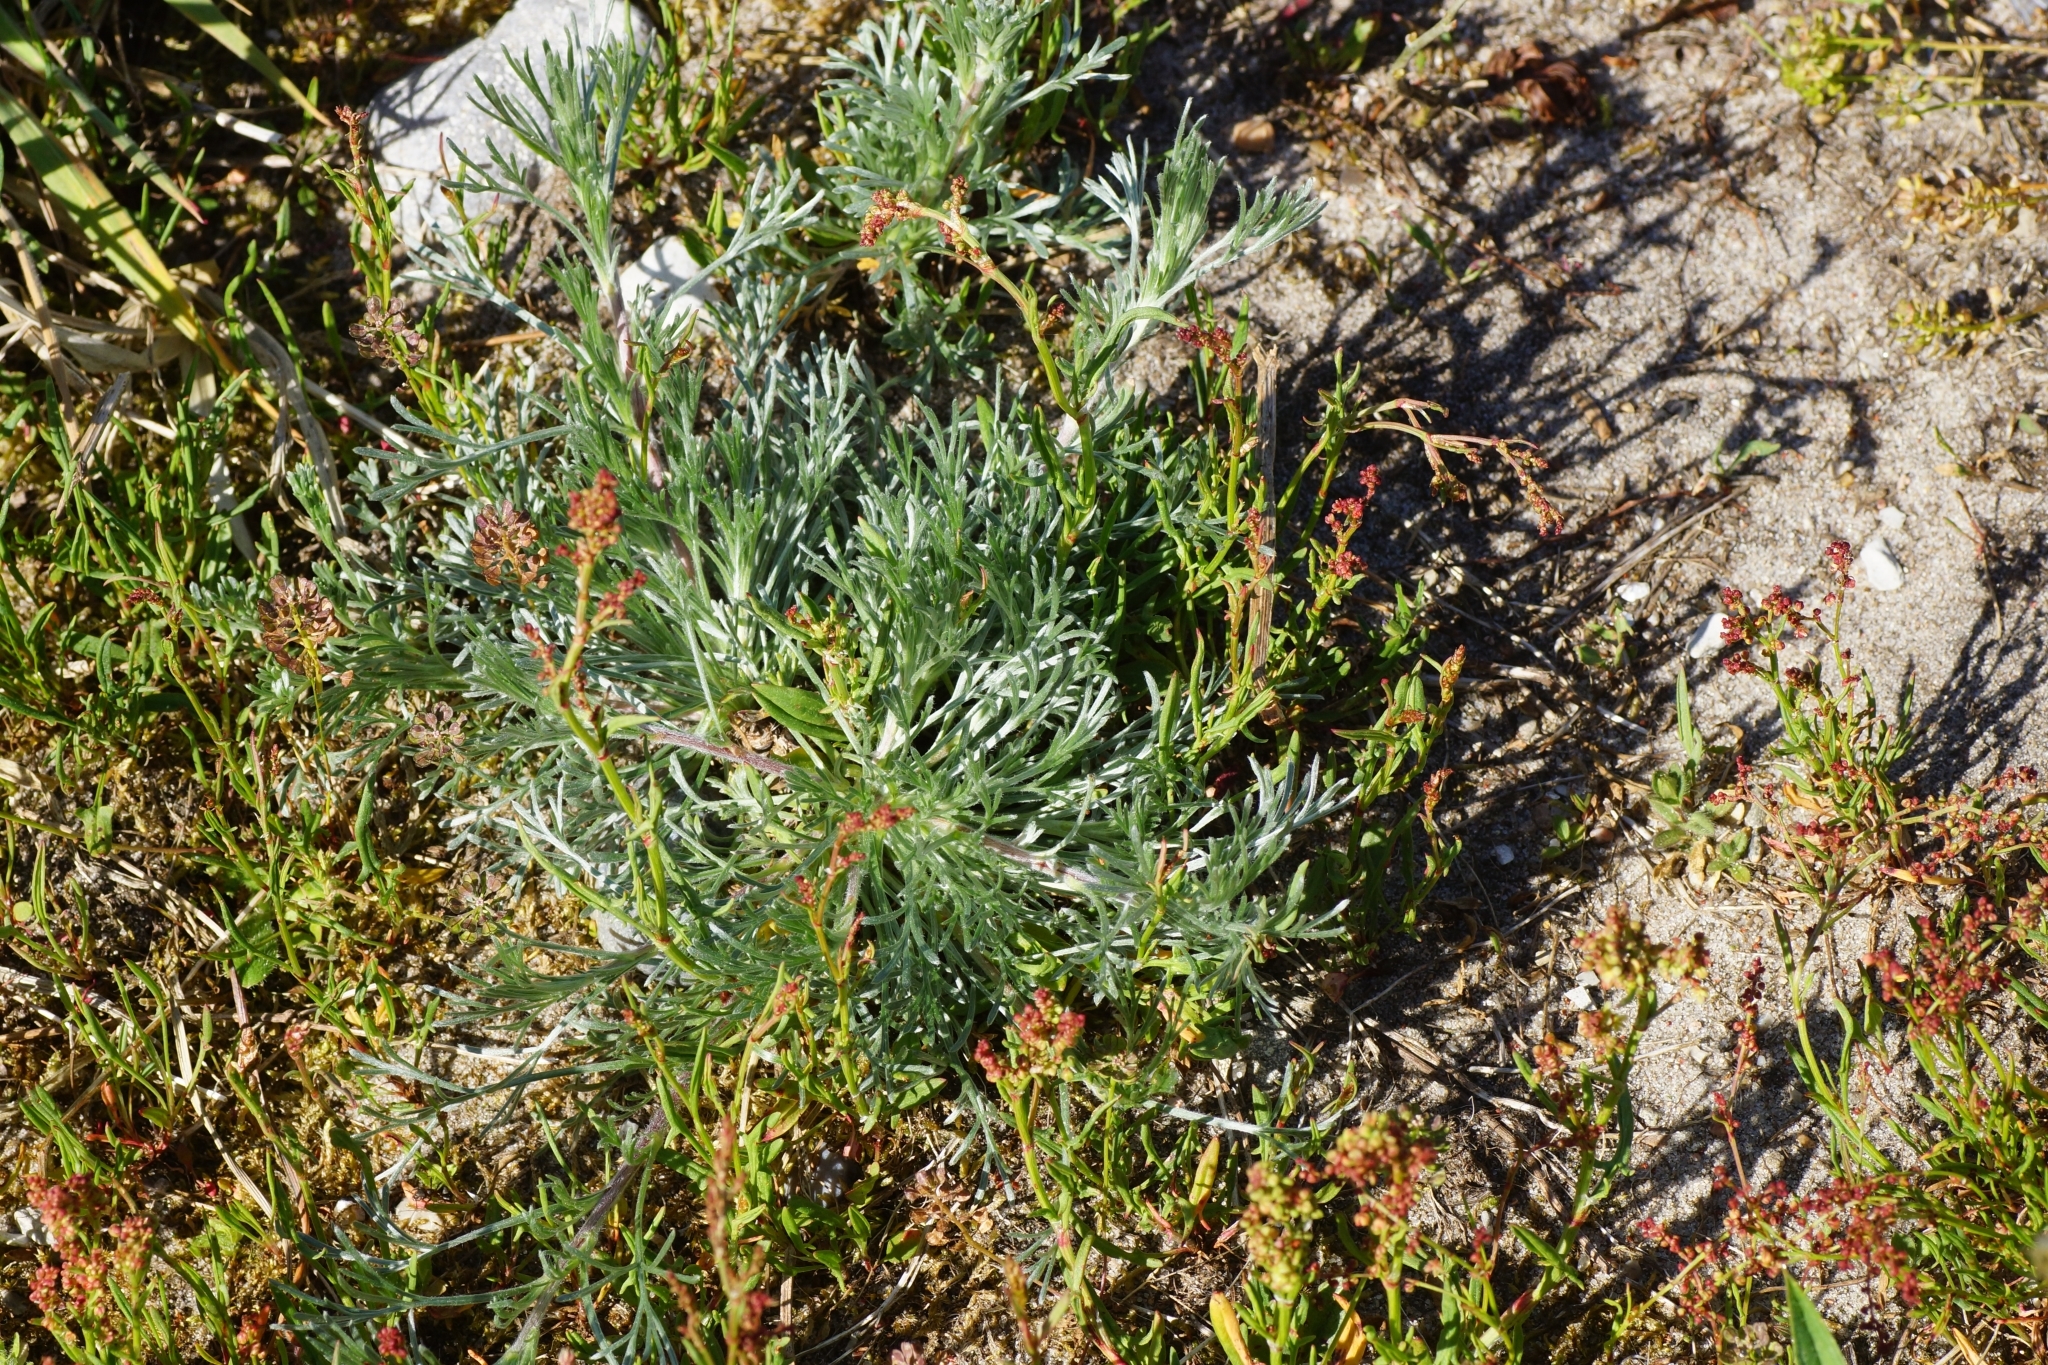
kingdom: Plantae
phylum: Tracheophyta
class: Magnoliopsida
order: Asterales
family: Asteraceae
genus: Artemisia
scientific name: Artemisia campestris
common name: Field wormwood
